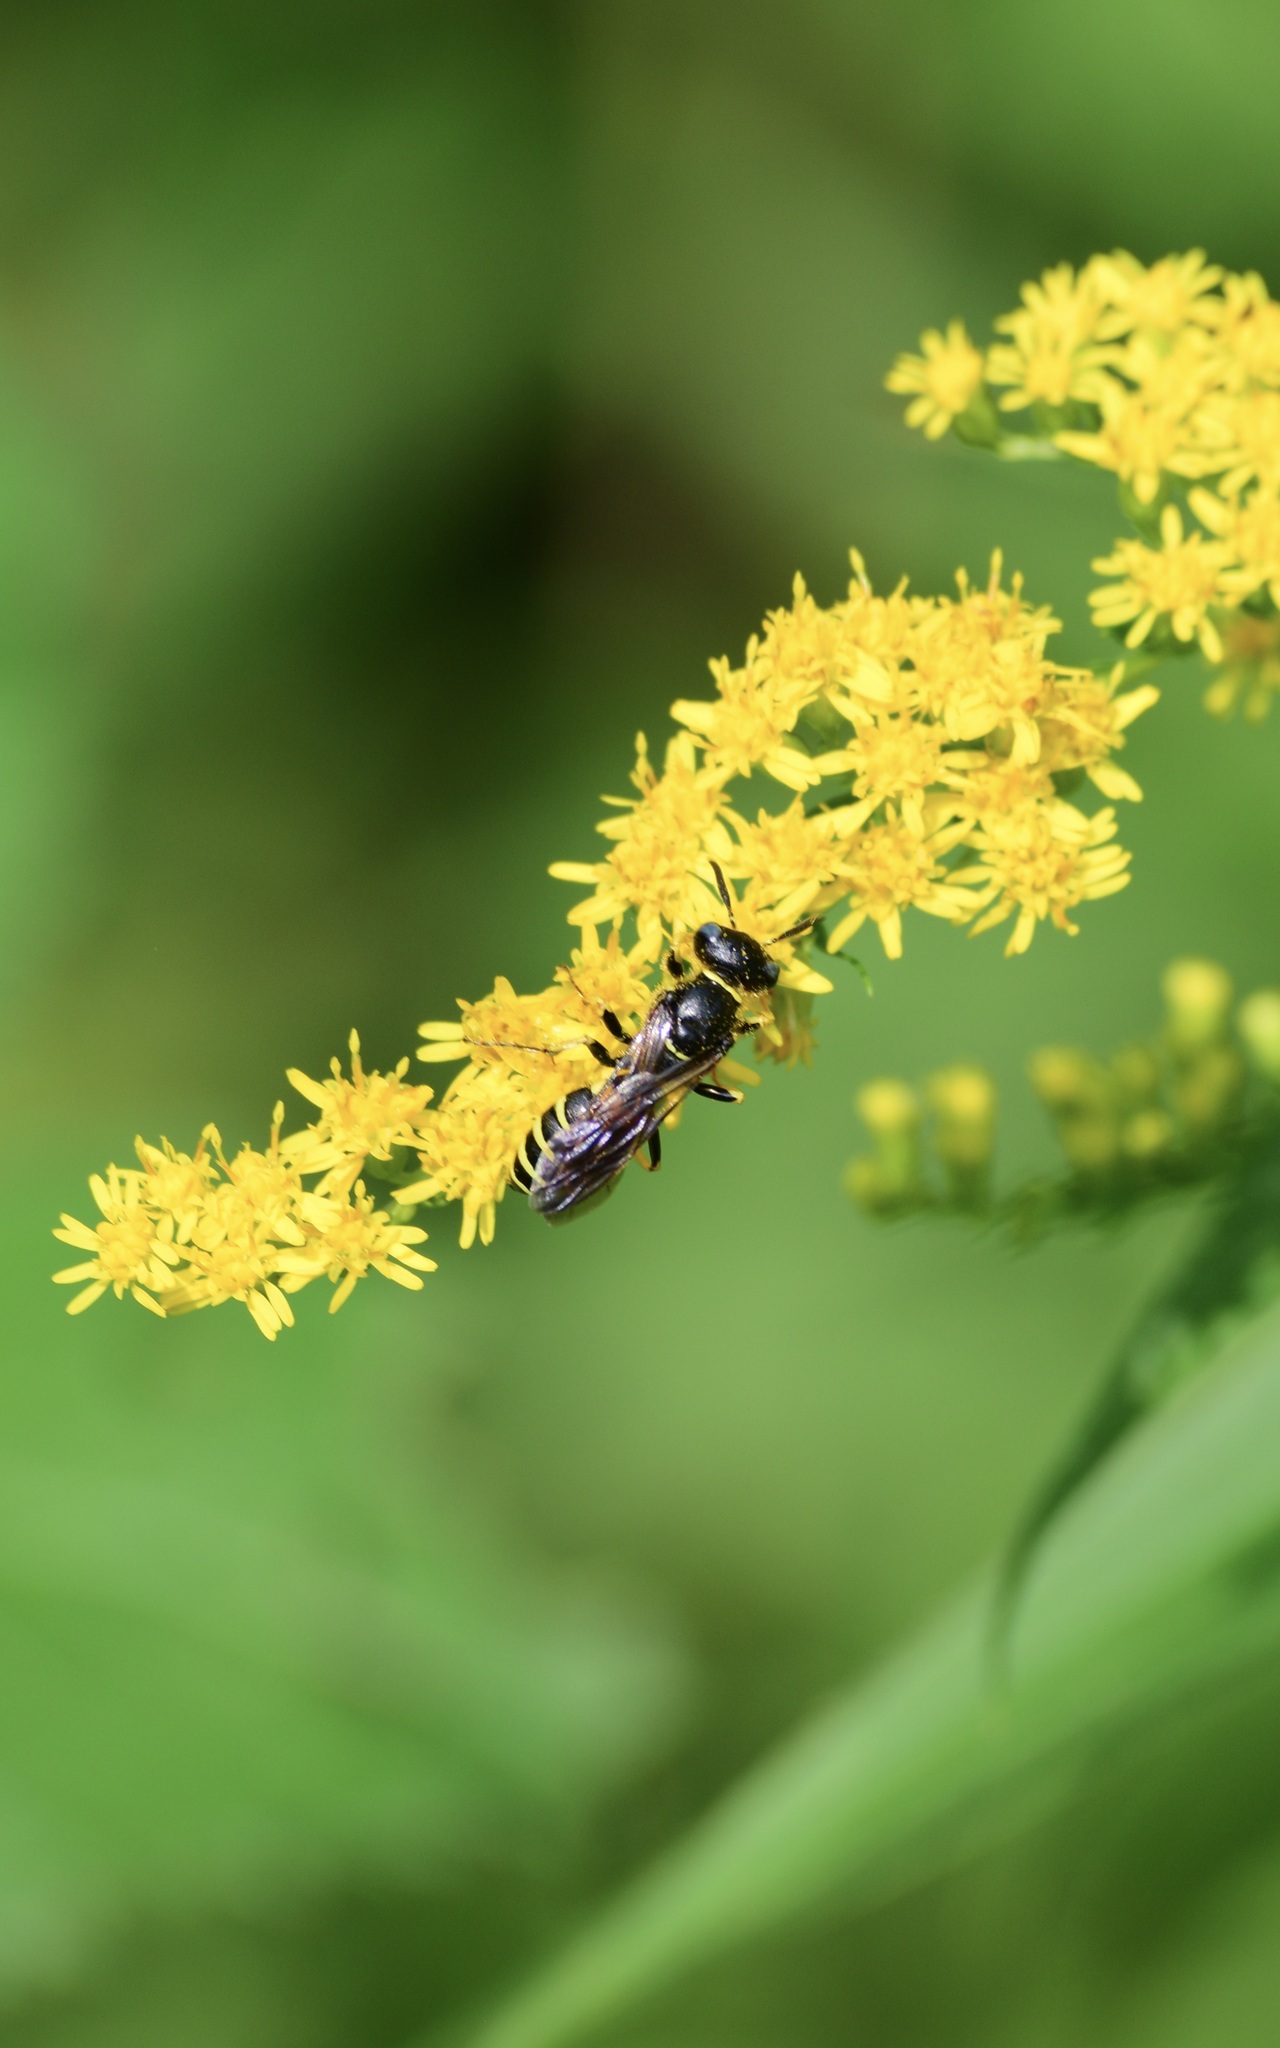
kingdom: Animalia
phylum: Arthropoda
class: Insecta
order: Hymenoptera
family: Crabronidae
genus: Philanthus
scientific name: Philanthus solivagus
